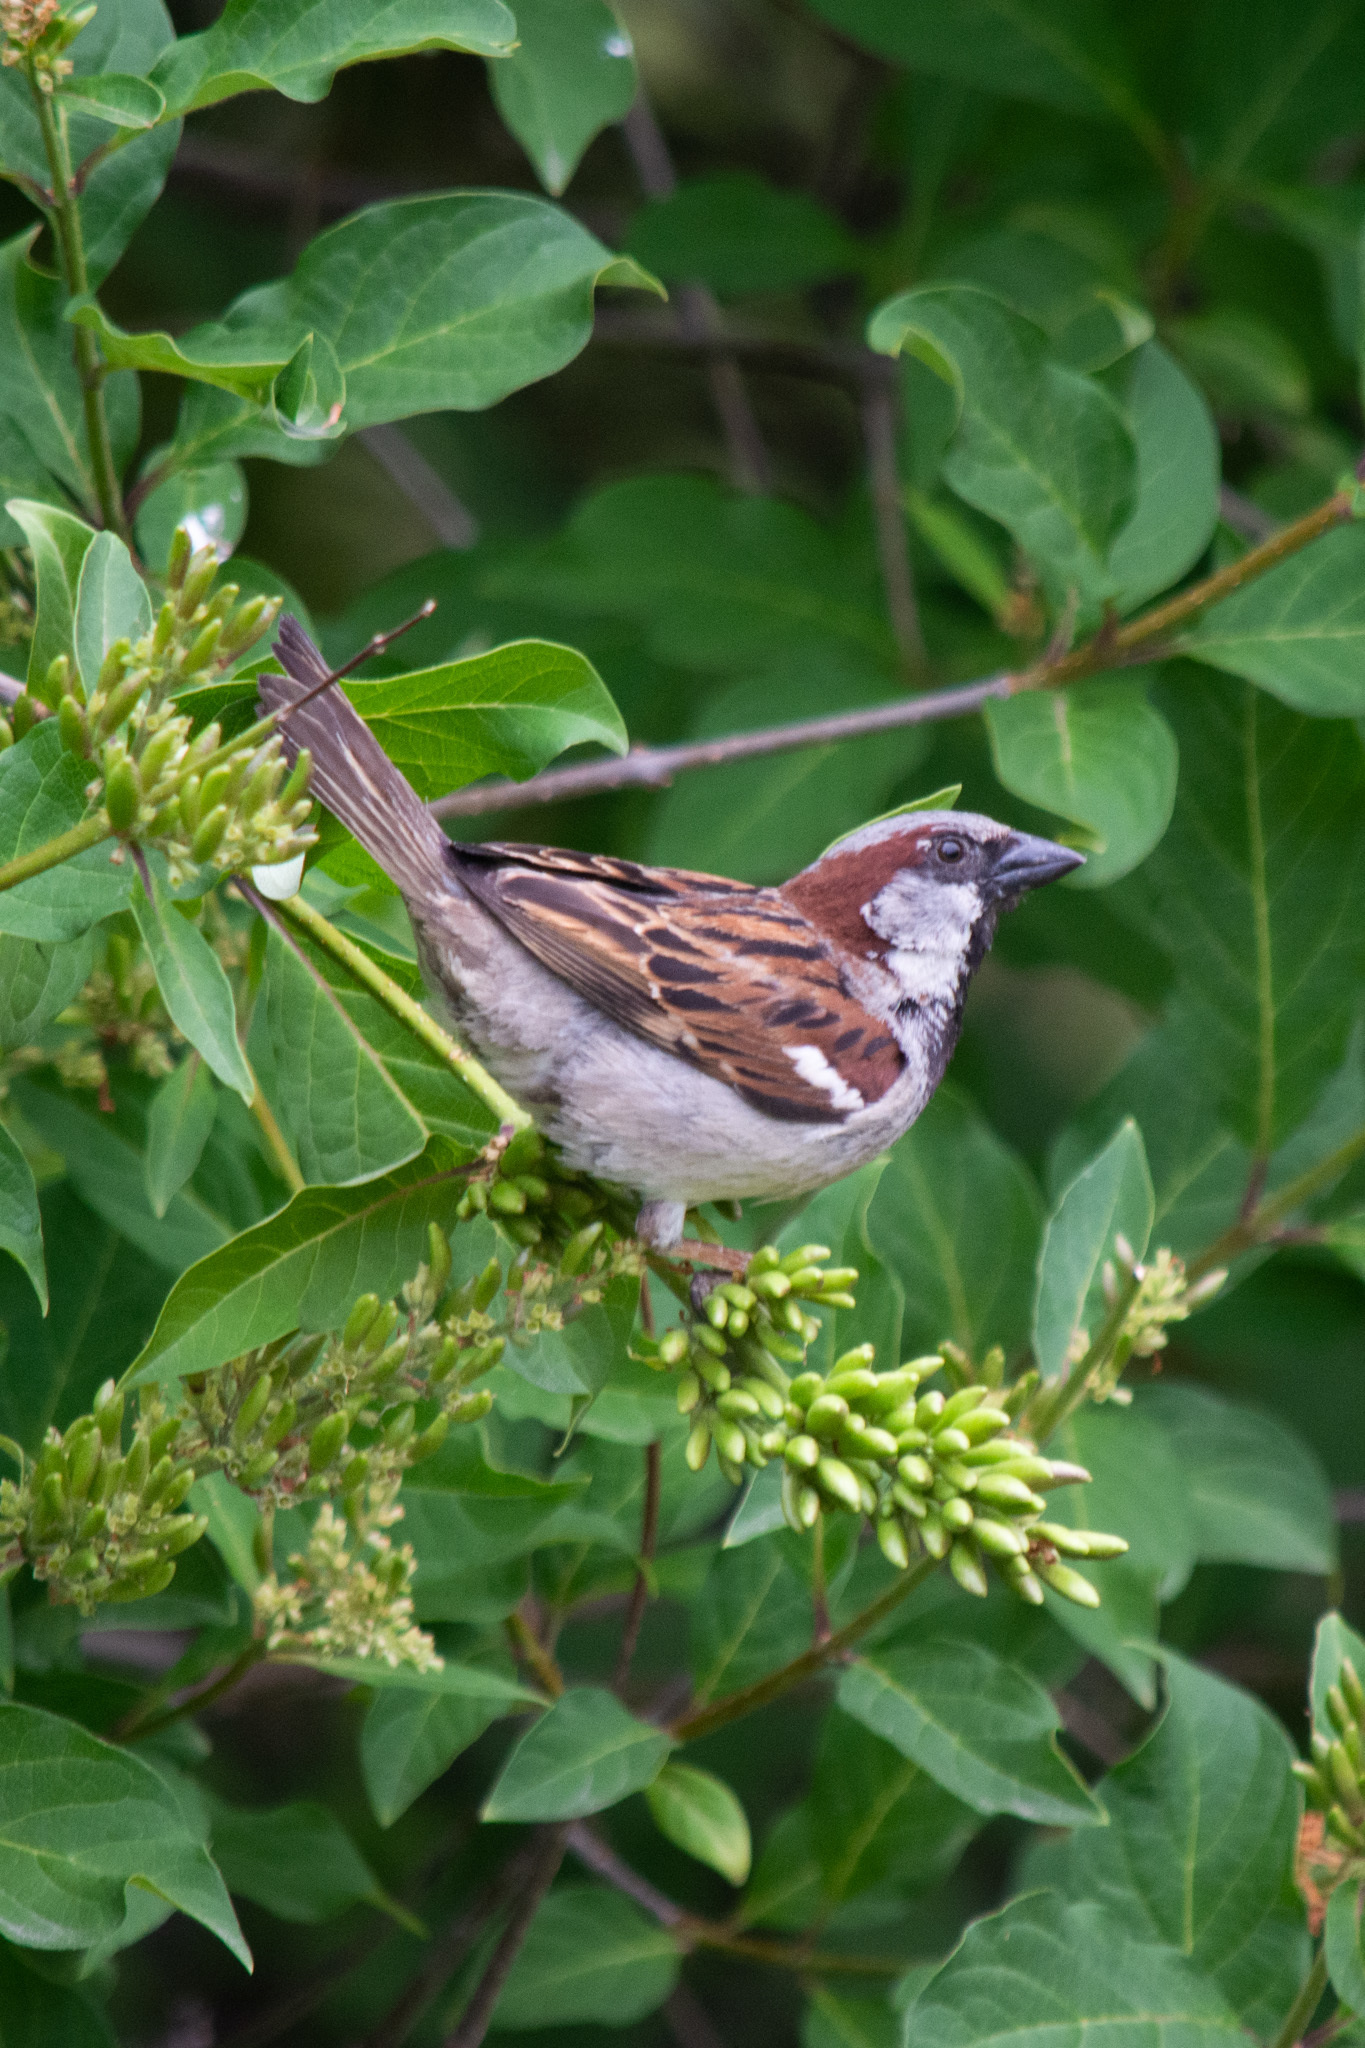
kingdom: Animalia
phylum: Chordata
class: Aves
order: Passeriformes
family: Passeridae
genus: Passer
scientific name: Passer domesticus
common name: House sparrow
